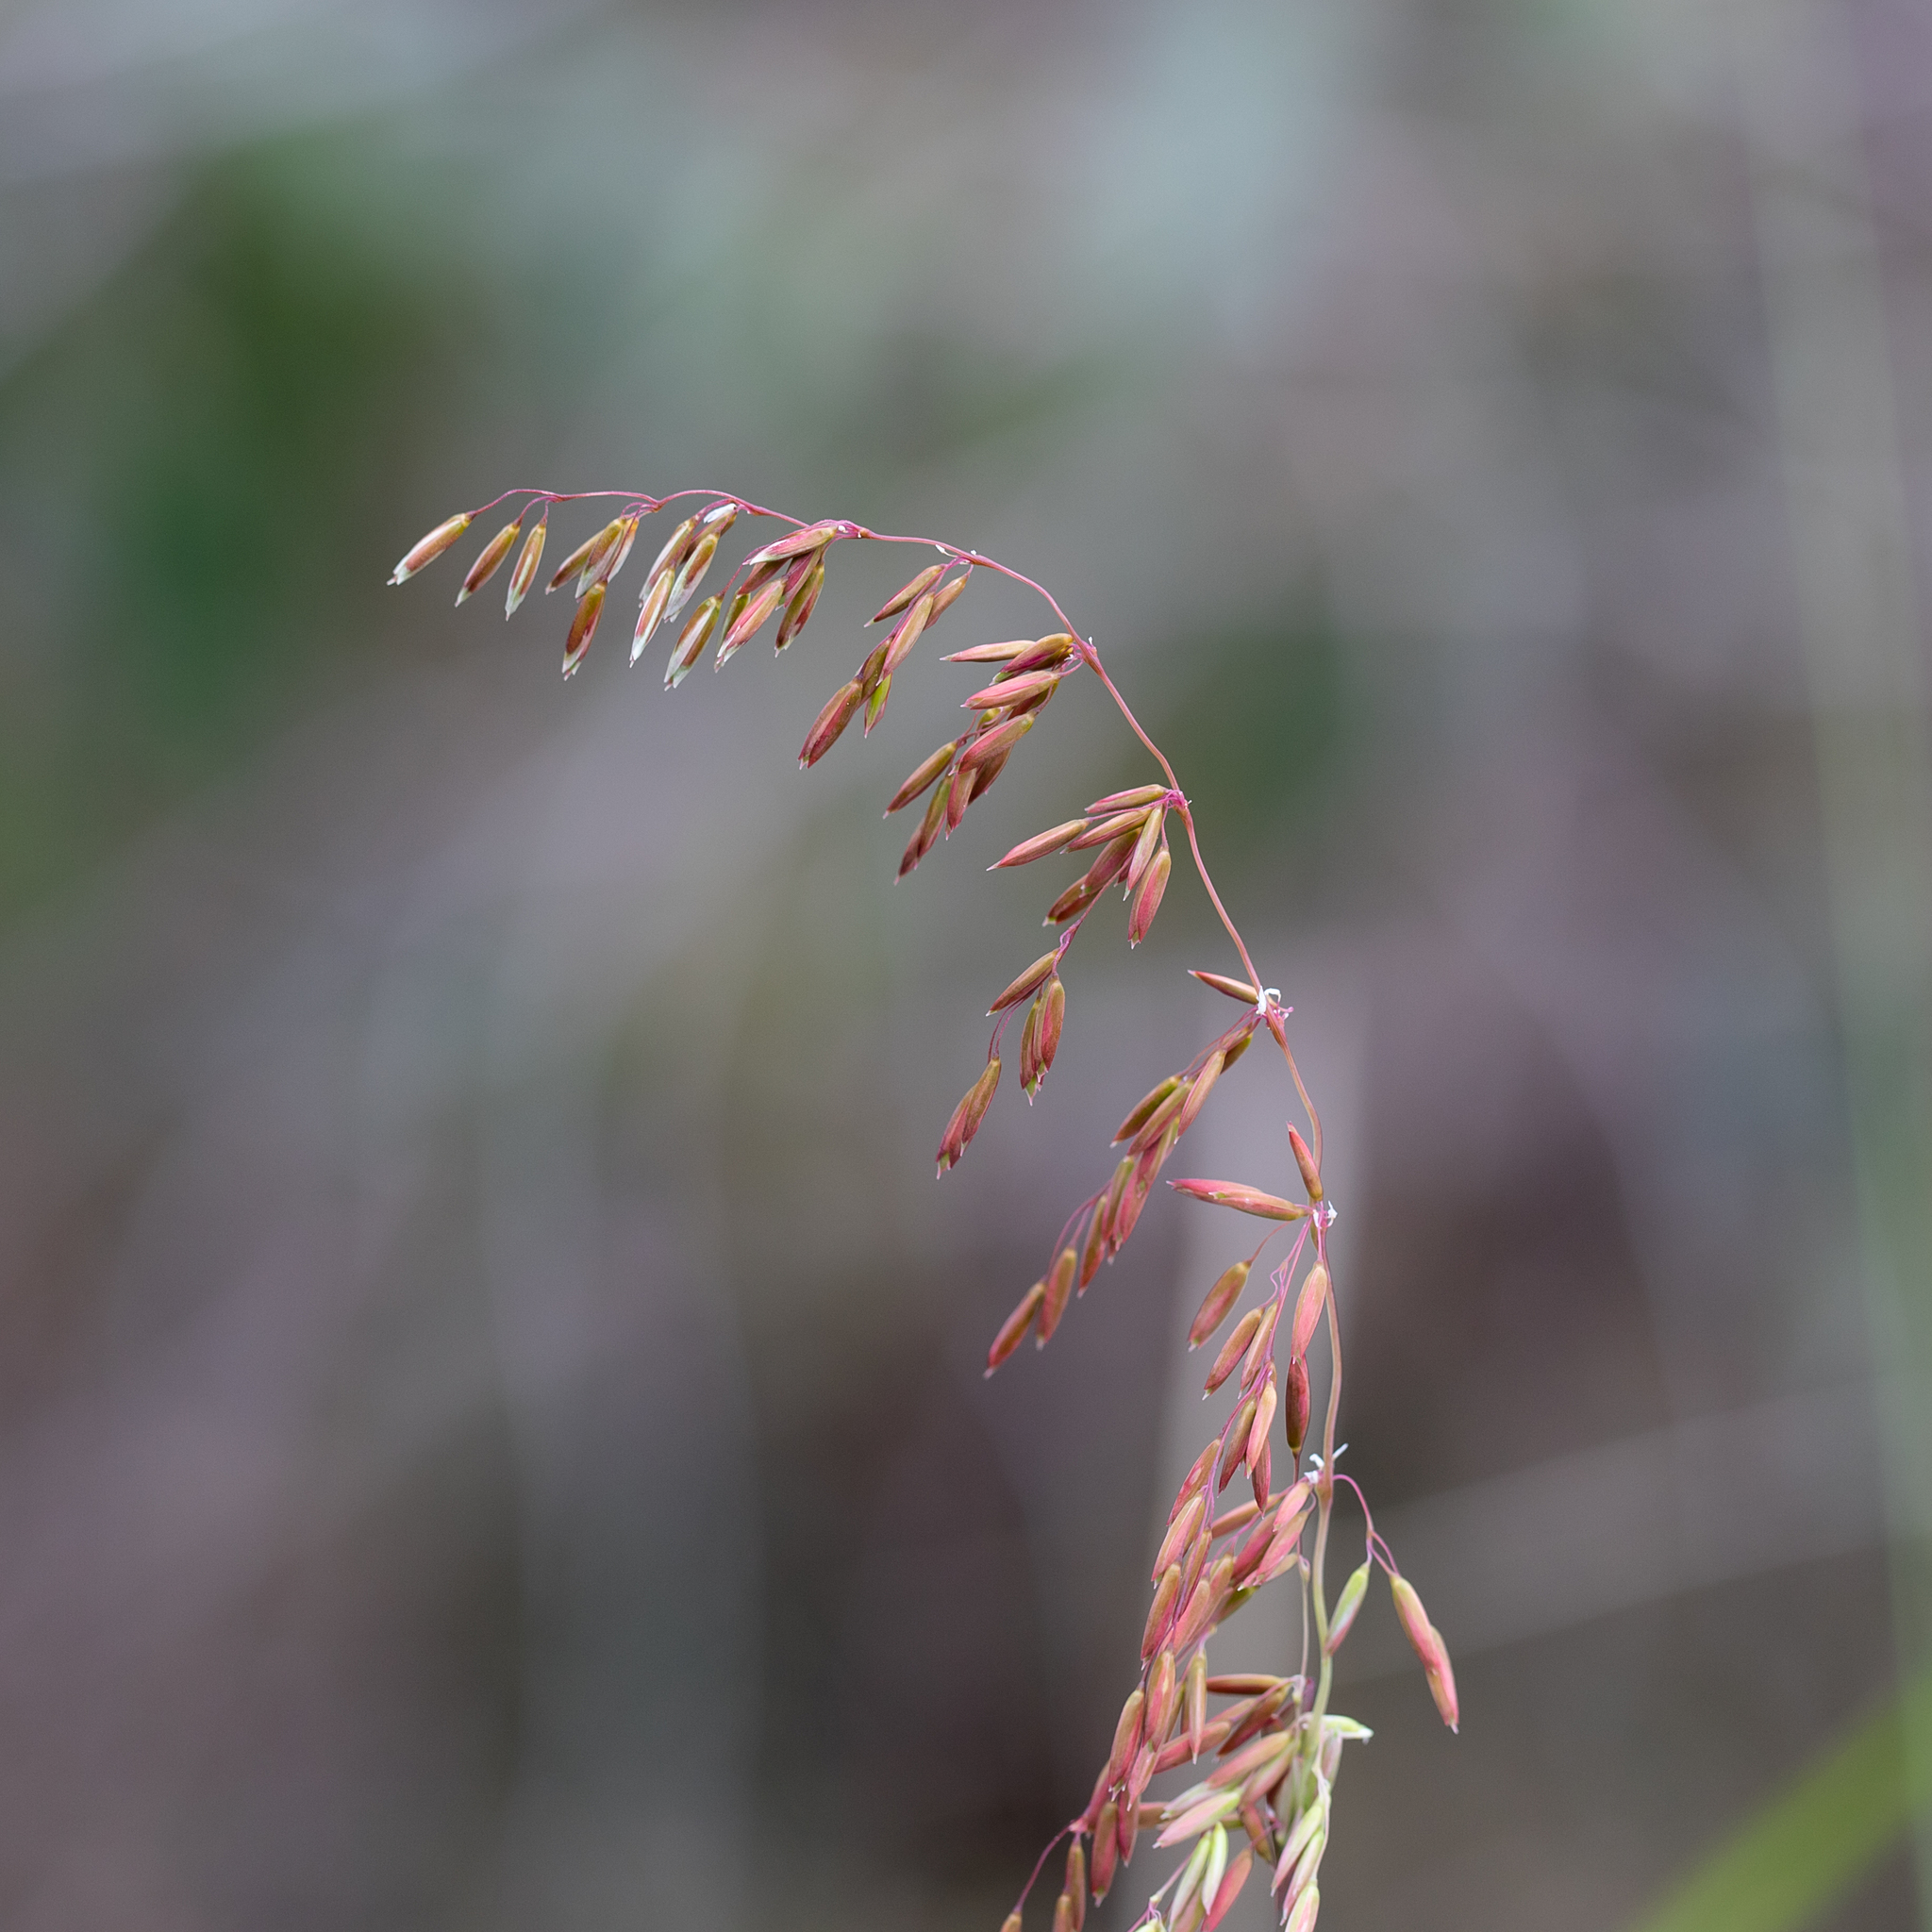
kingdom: Plantae
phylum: Tracheophyta
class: Liliopsida
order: Poales
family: Poaceae
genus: Ehrharta
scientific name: Ehrharta calycina
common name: Perennial veldtgrass
